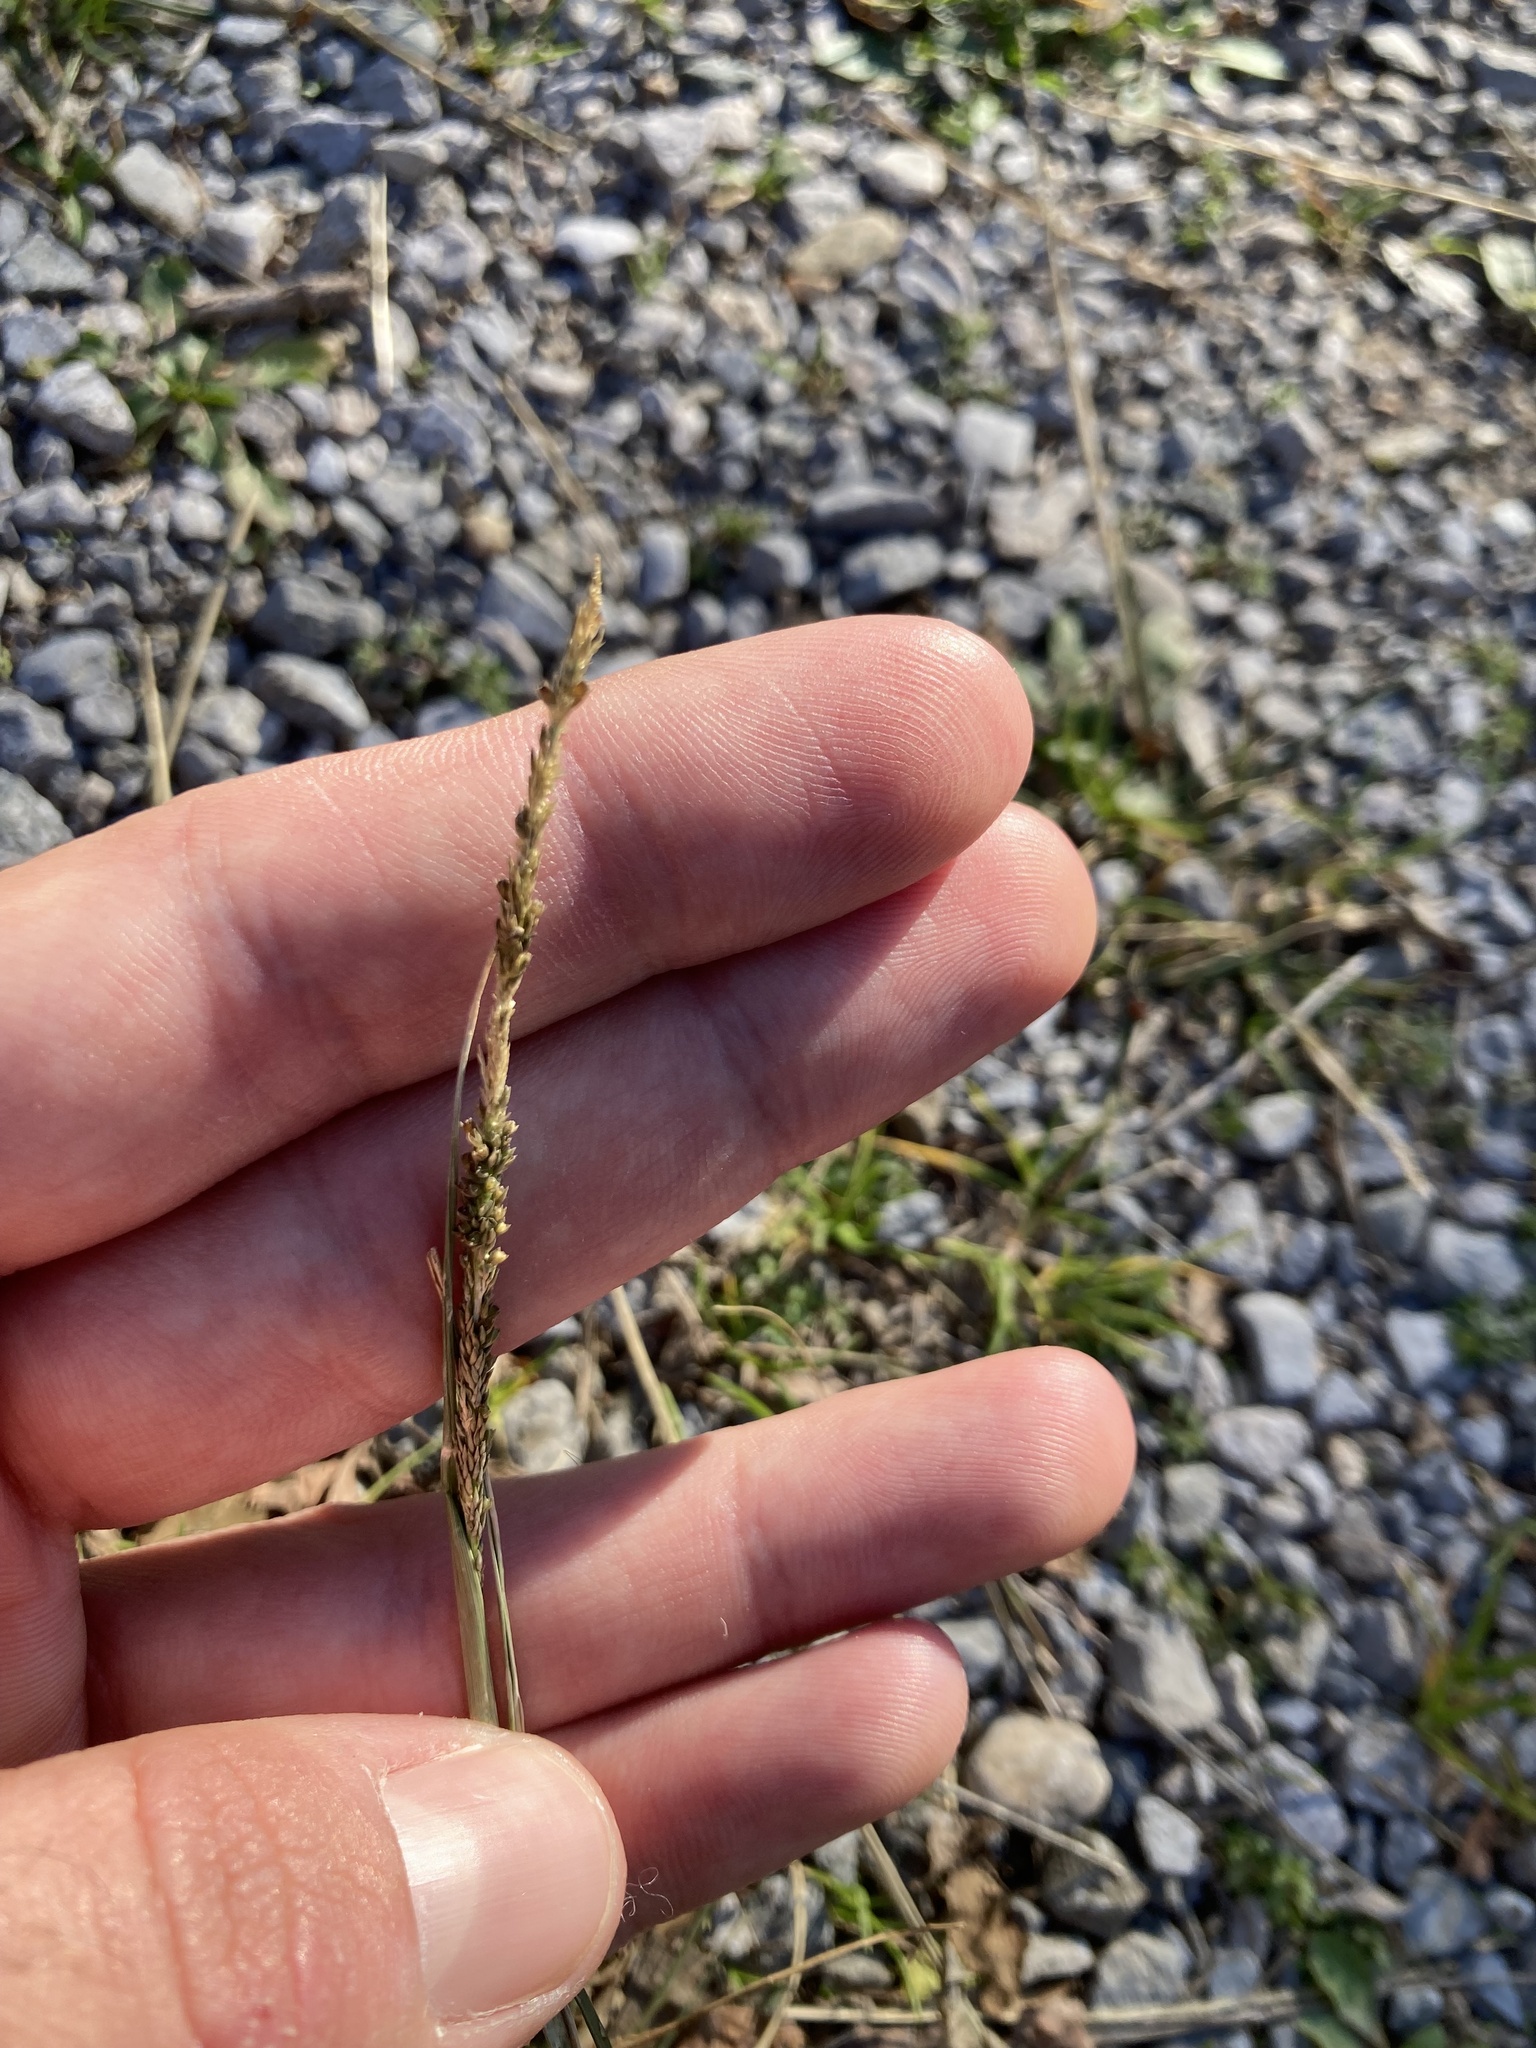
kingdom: Plantae
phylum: Tracheophyta
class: Liliopsida
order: Poales
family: Poaceae
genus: Sporobolus
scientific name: Sporobolus indicus
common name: Smut grass
